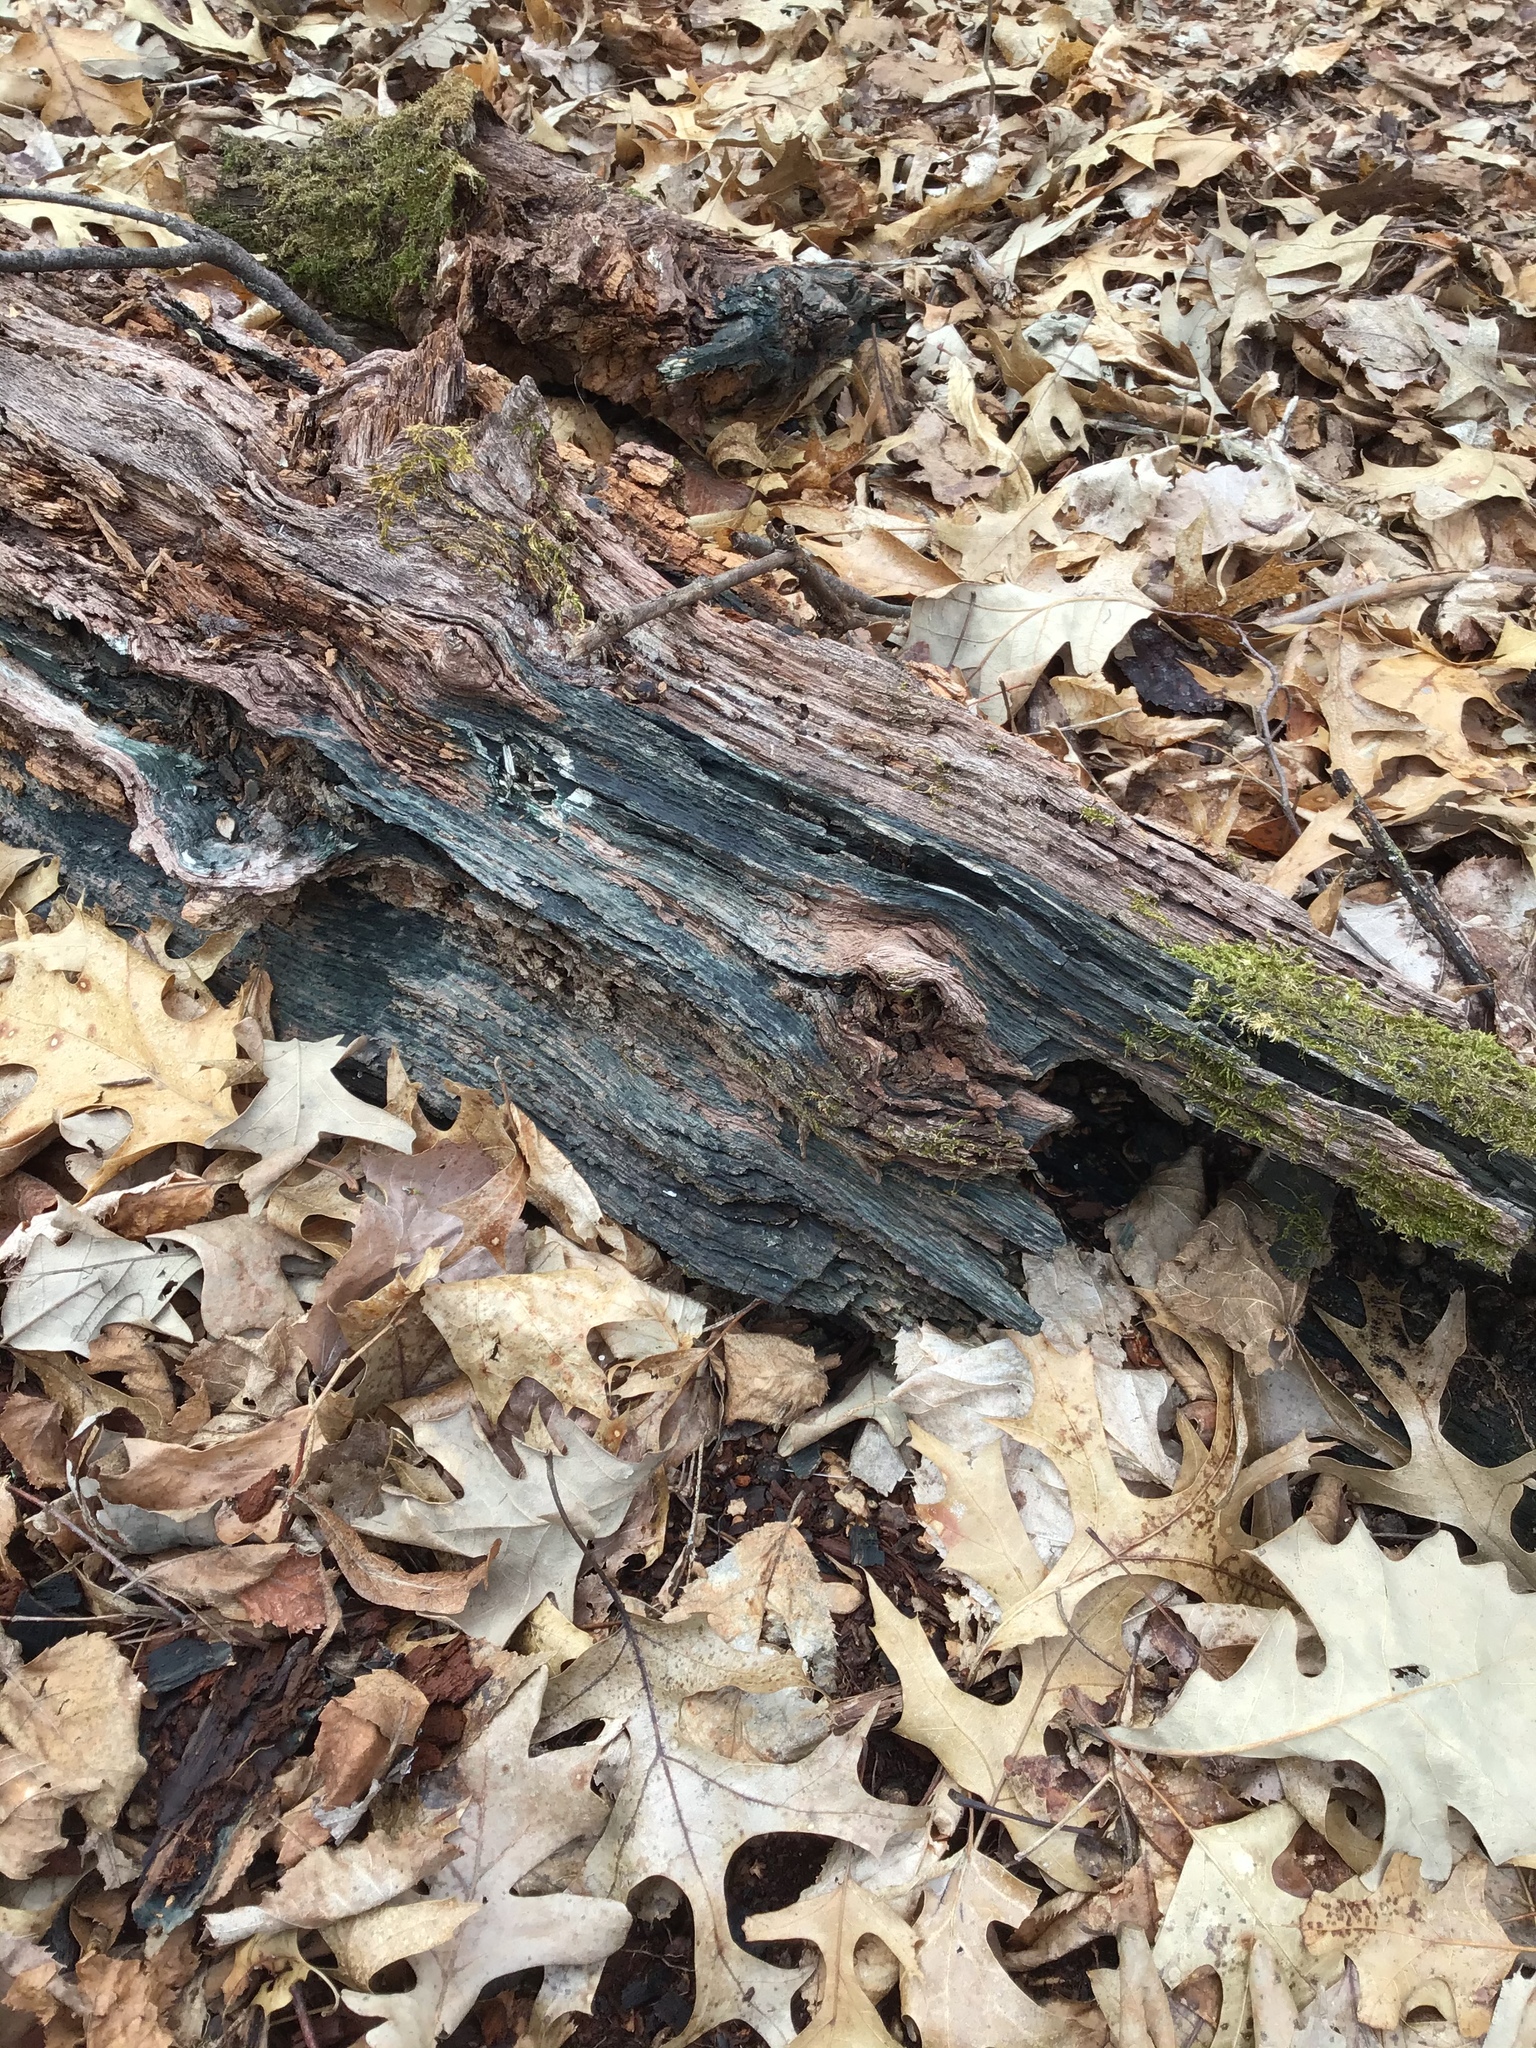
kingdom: Fungi
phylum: Ascomycota
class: Leotiomycetes
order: Helotiales
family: Chlorociboriaceae
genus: Chlorociboria
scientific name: Chlorociboria
